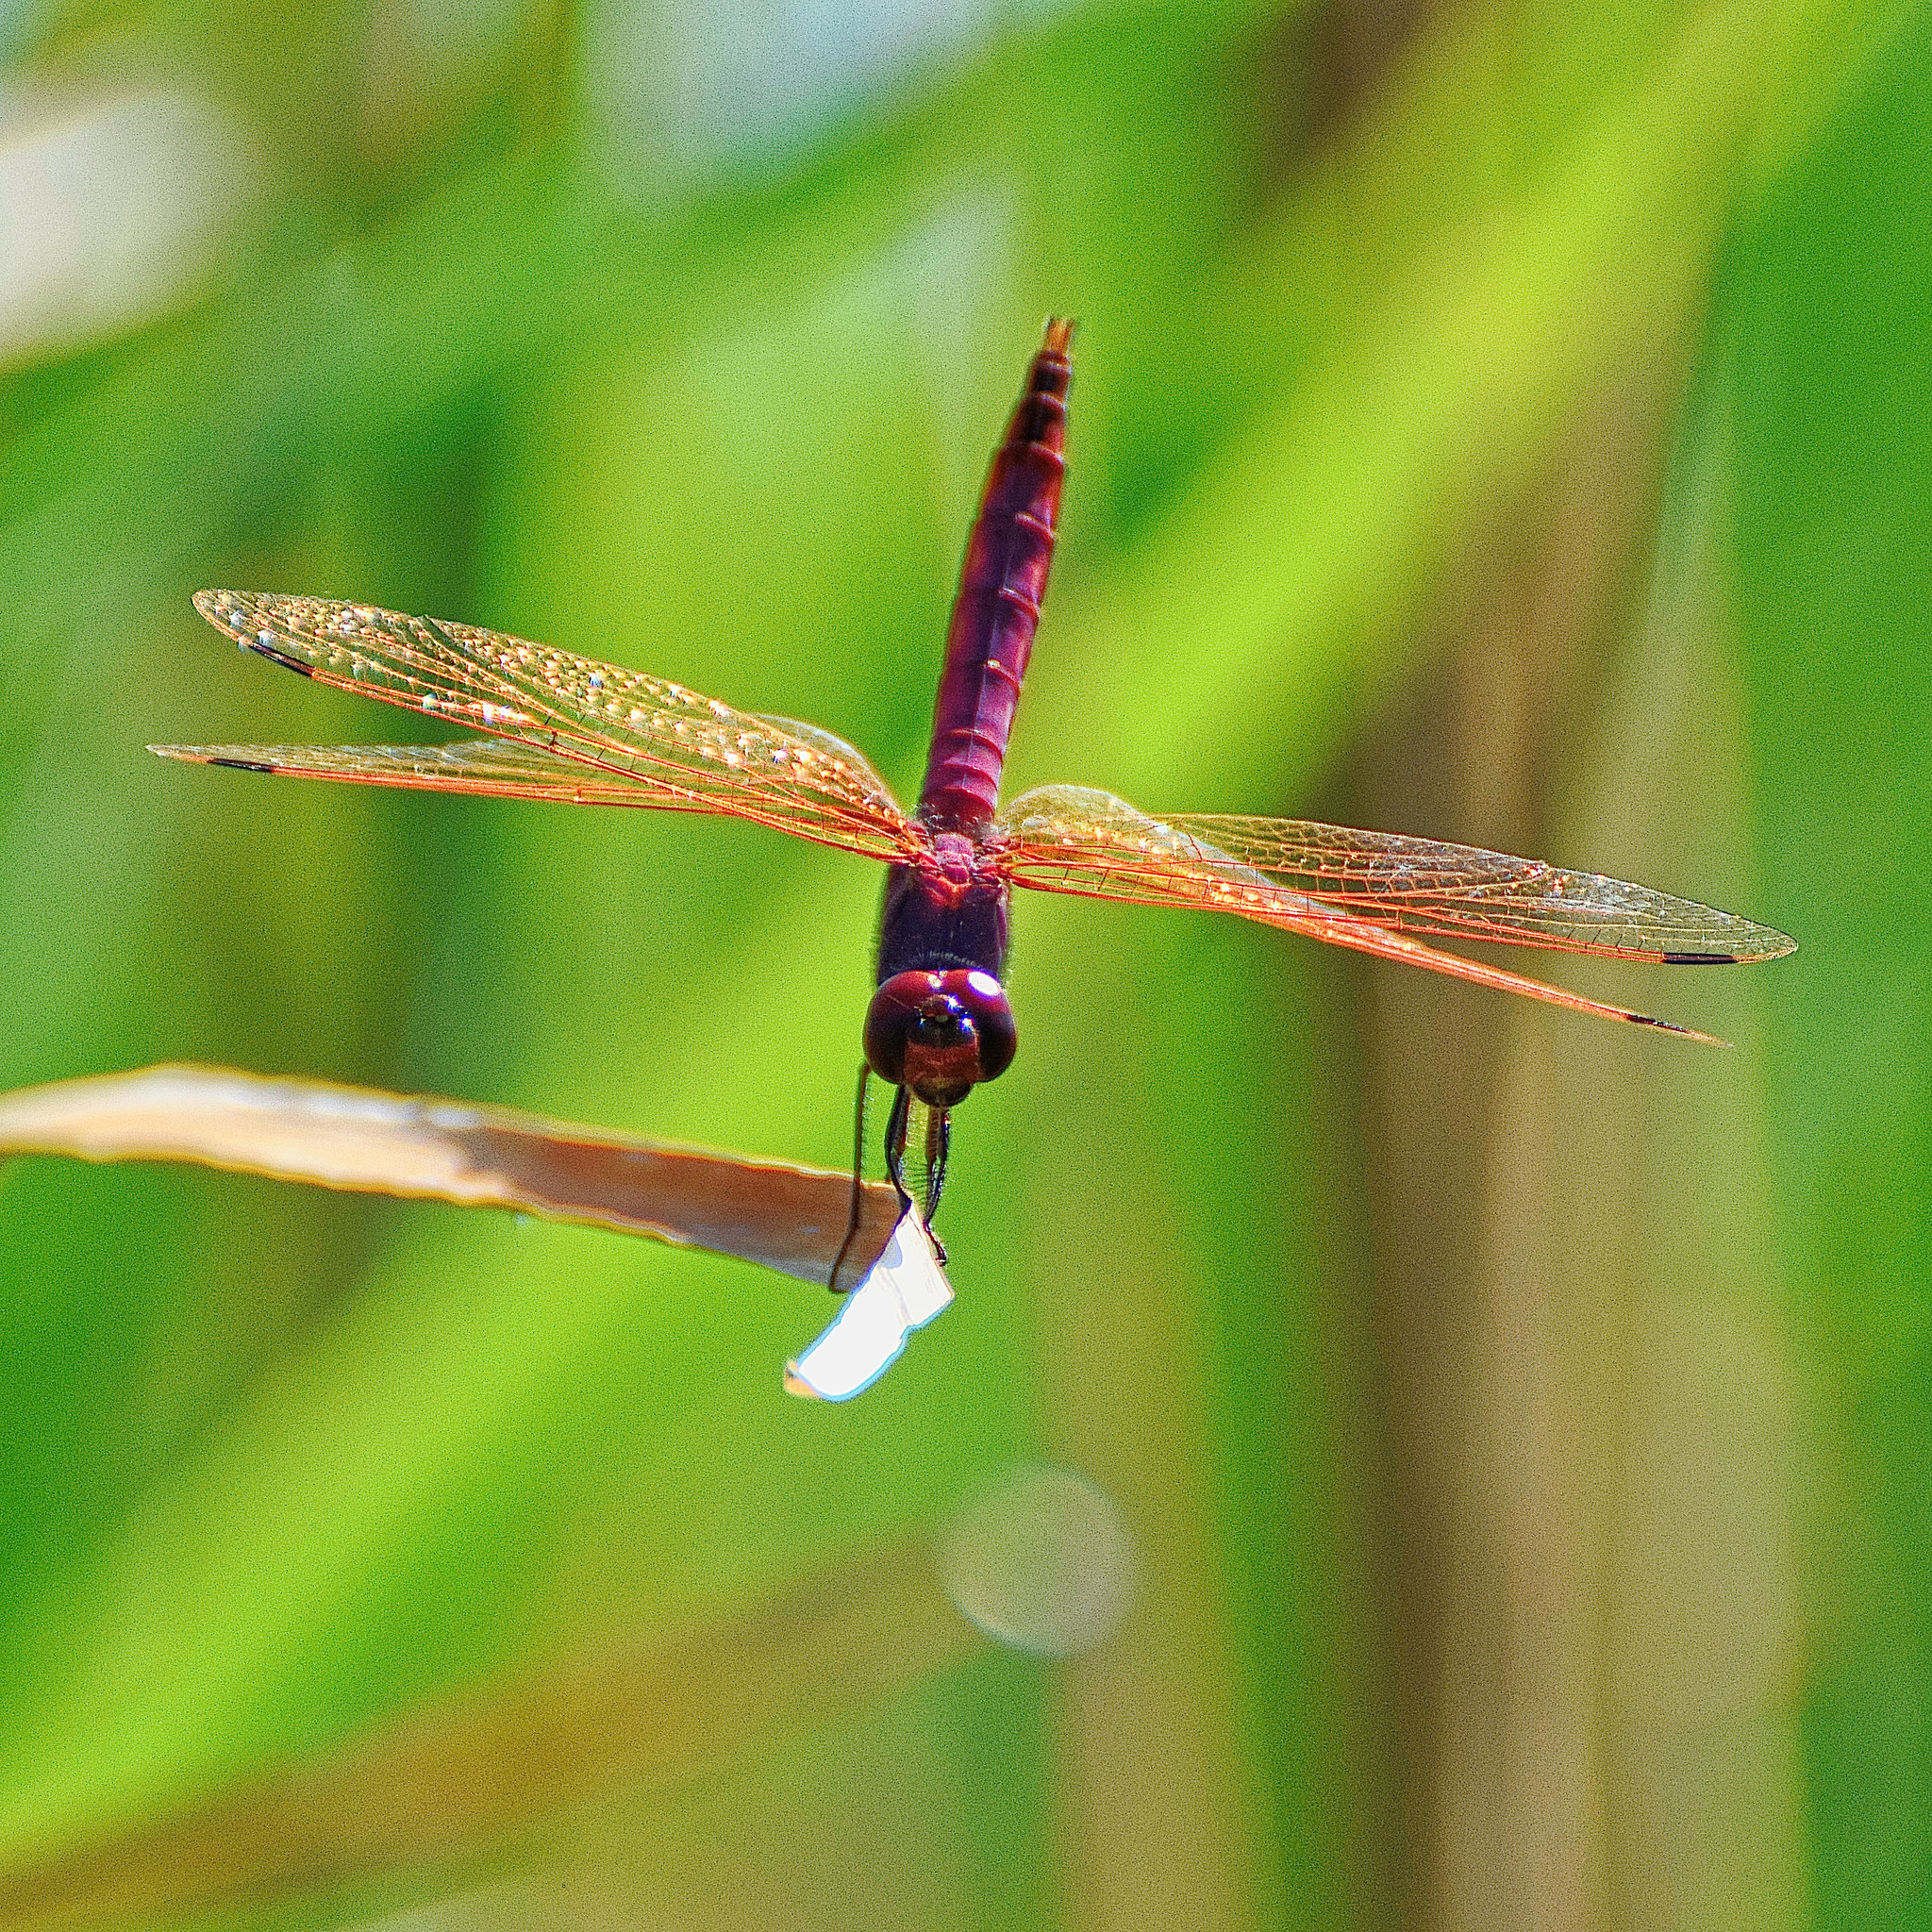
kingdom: Animalia
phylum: Arthropoda
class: Insecta
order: Odonata
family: Libellulidae
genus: Trithemis
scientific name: Trithemis annulata
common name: Violet dropwing
